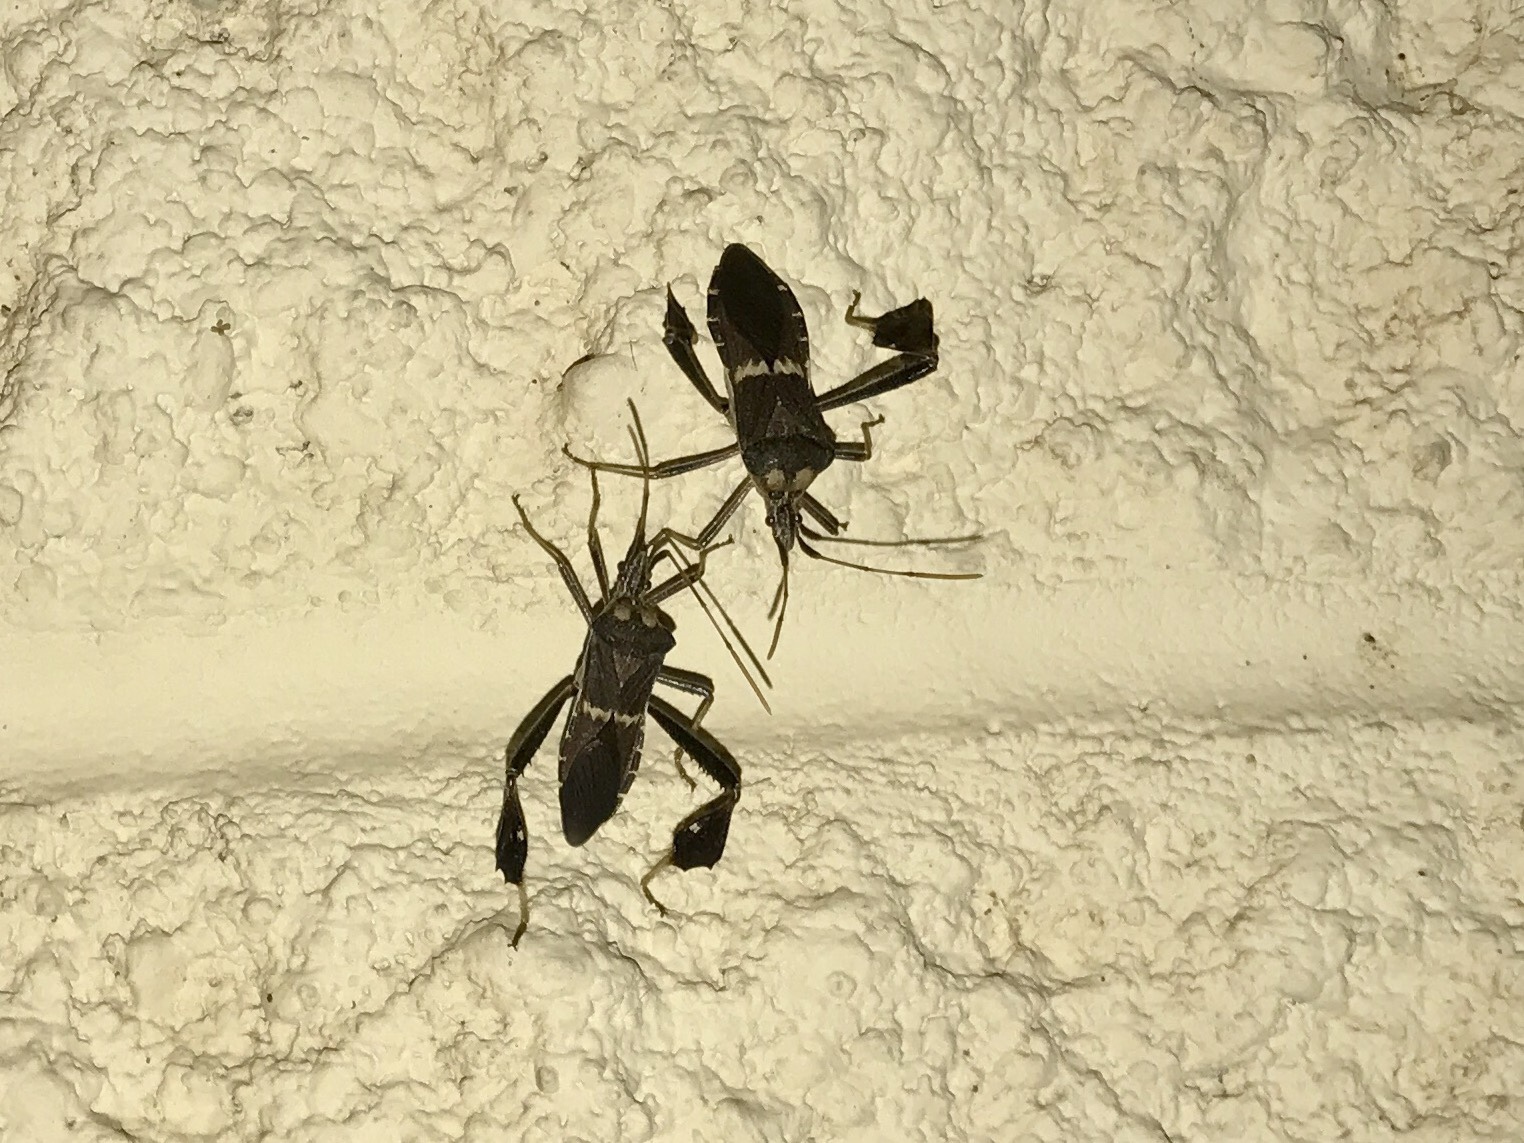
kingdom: Animalia
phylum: Arthropoda
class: Insecta
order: Hemiptera
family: Coreidae
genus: Leptoglossus
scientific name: Leptoglossus zonatus
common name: Large-legged bug
